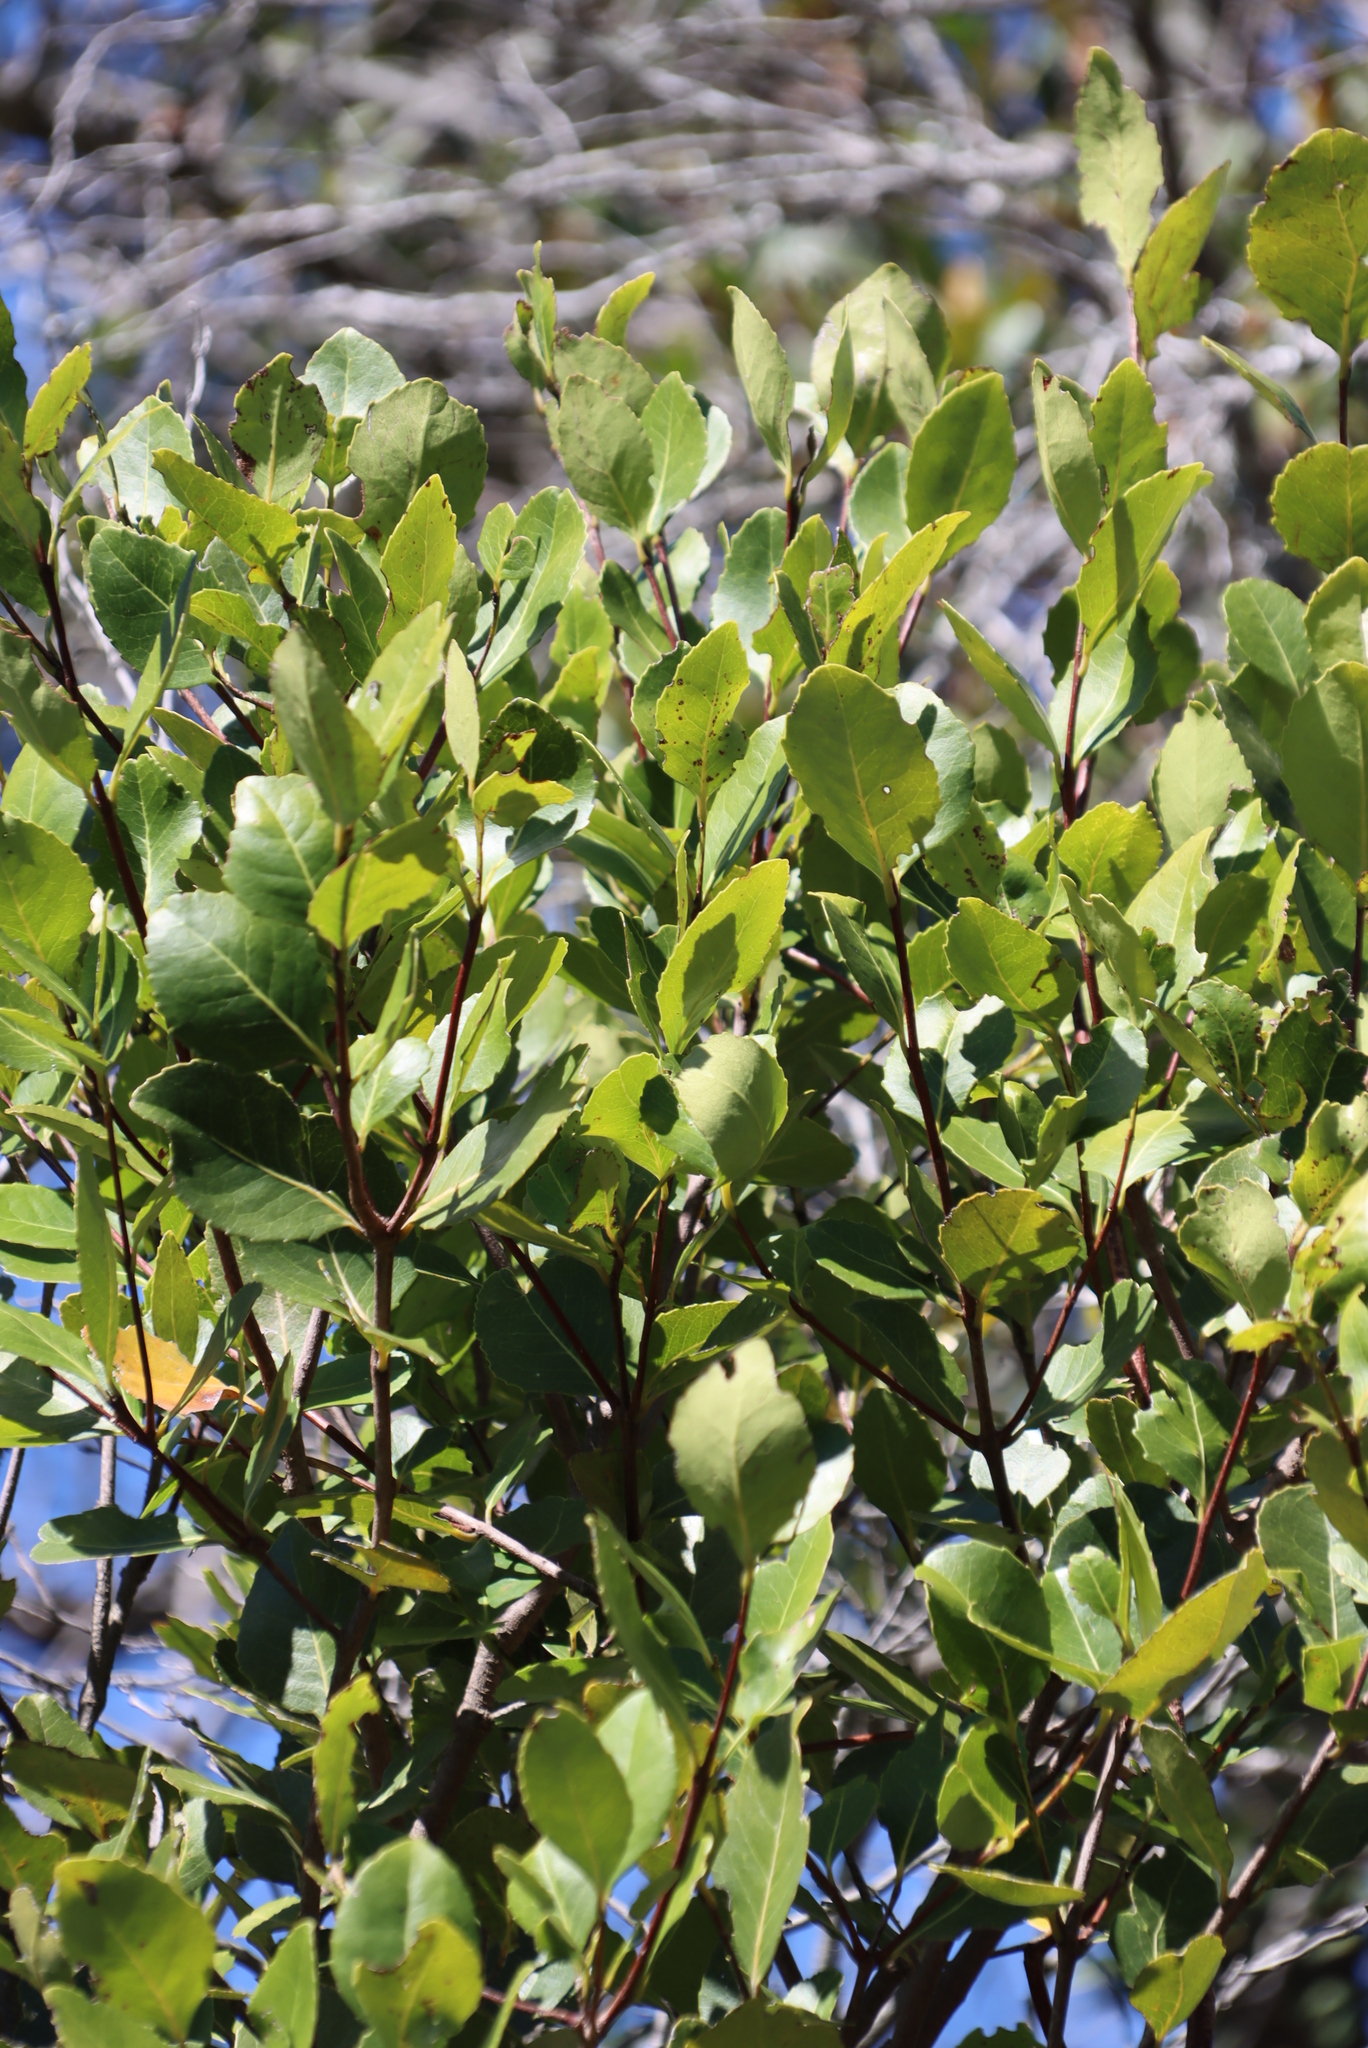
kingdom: Plantae
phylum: Tracheophyta
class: Magnoliopsida
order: Celastrales
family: Celastraceae
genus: Cassine
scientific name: Cassine peragua
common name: Cape saffron
